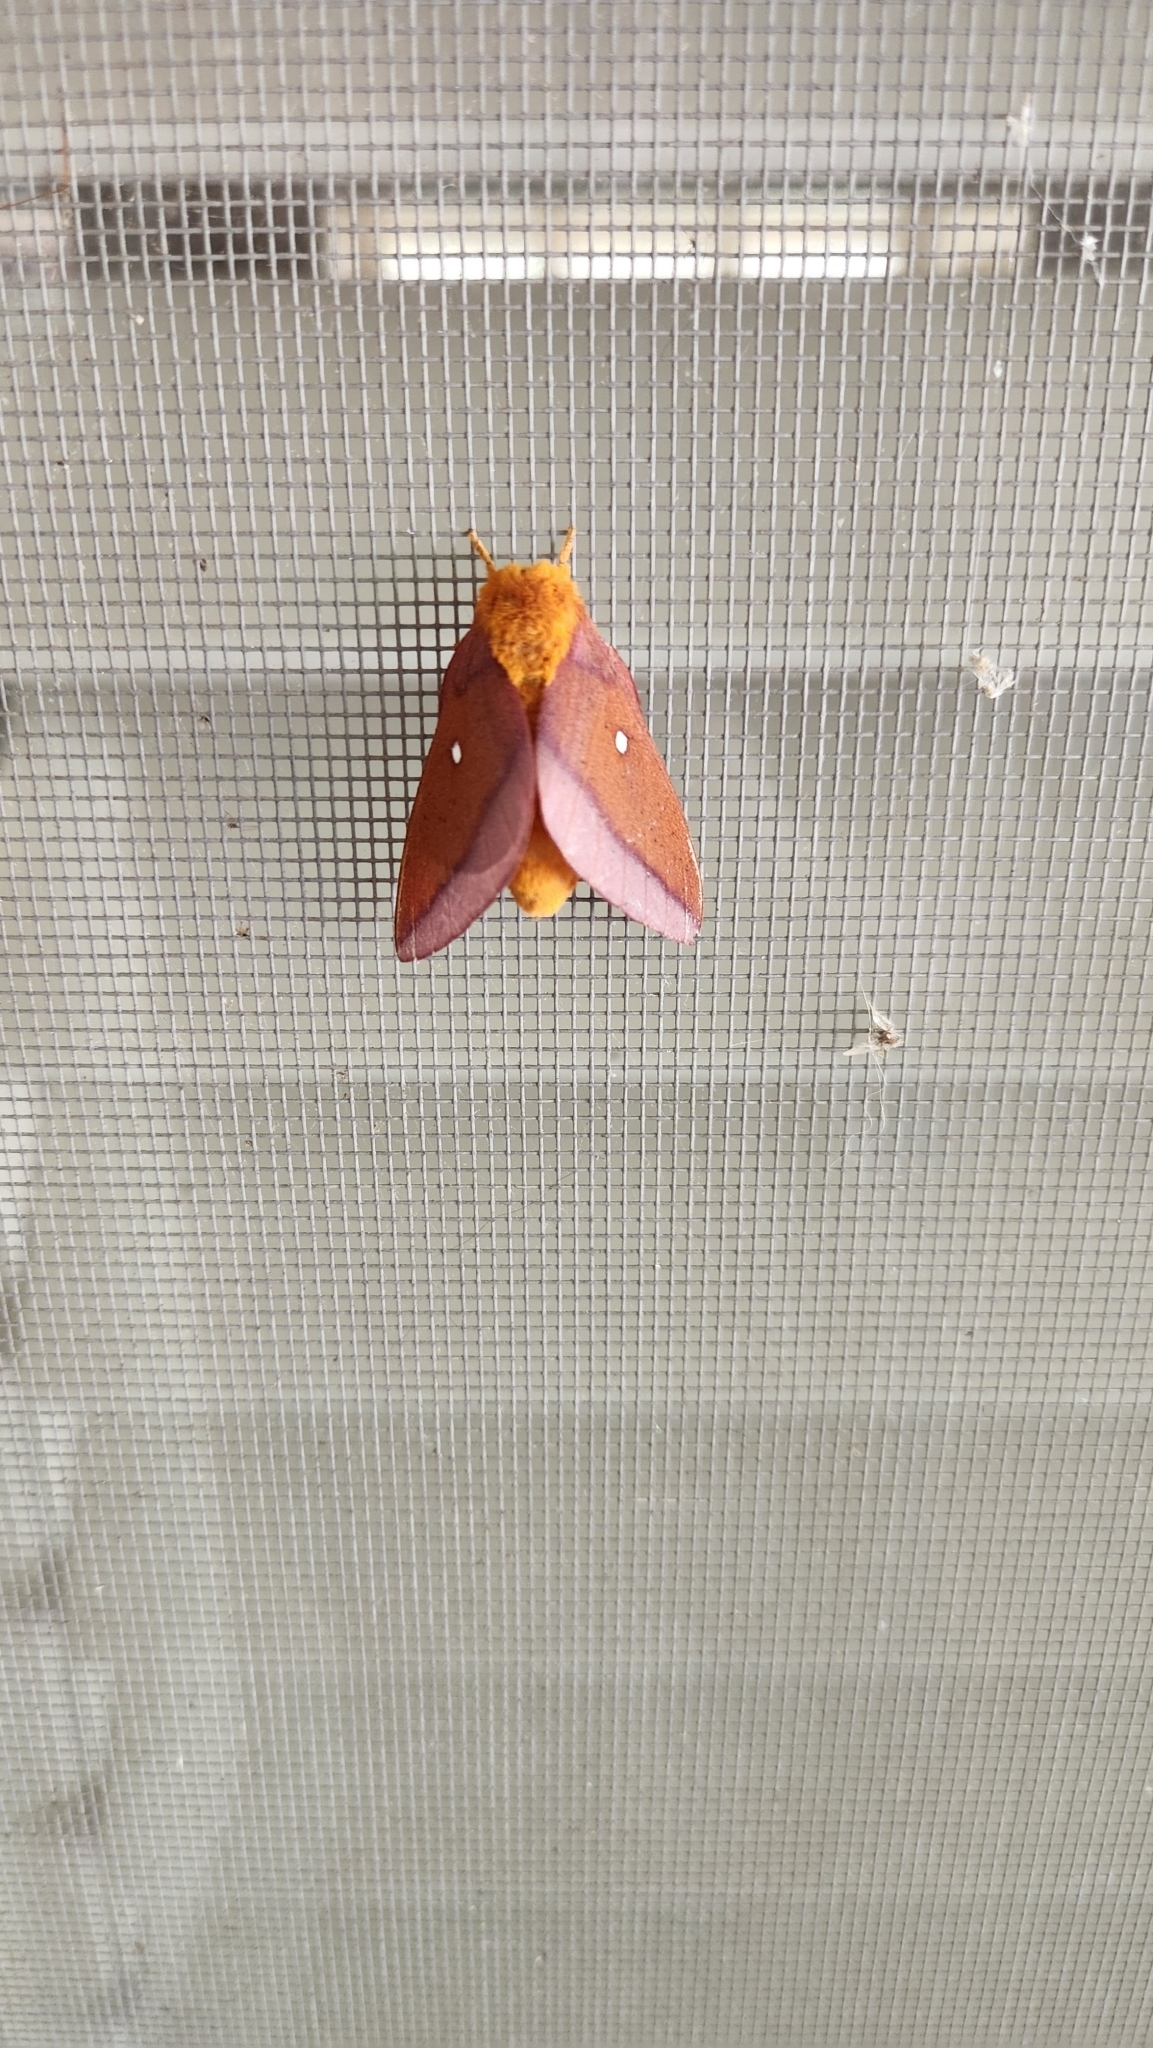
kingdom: Animalia
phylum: Arthropoda
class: Insecta
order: Lepidoptera
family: Saturniidae
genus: Anisota
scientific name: Anisota virginiensis
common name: Pink striped oakworm moth
